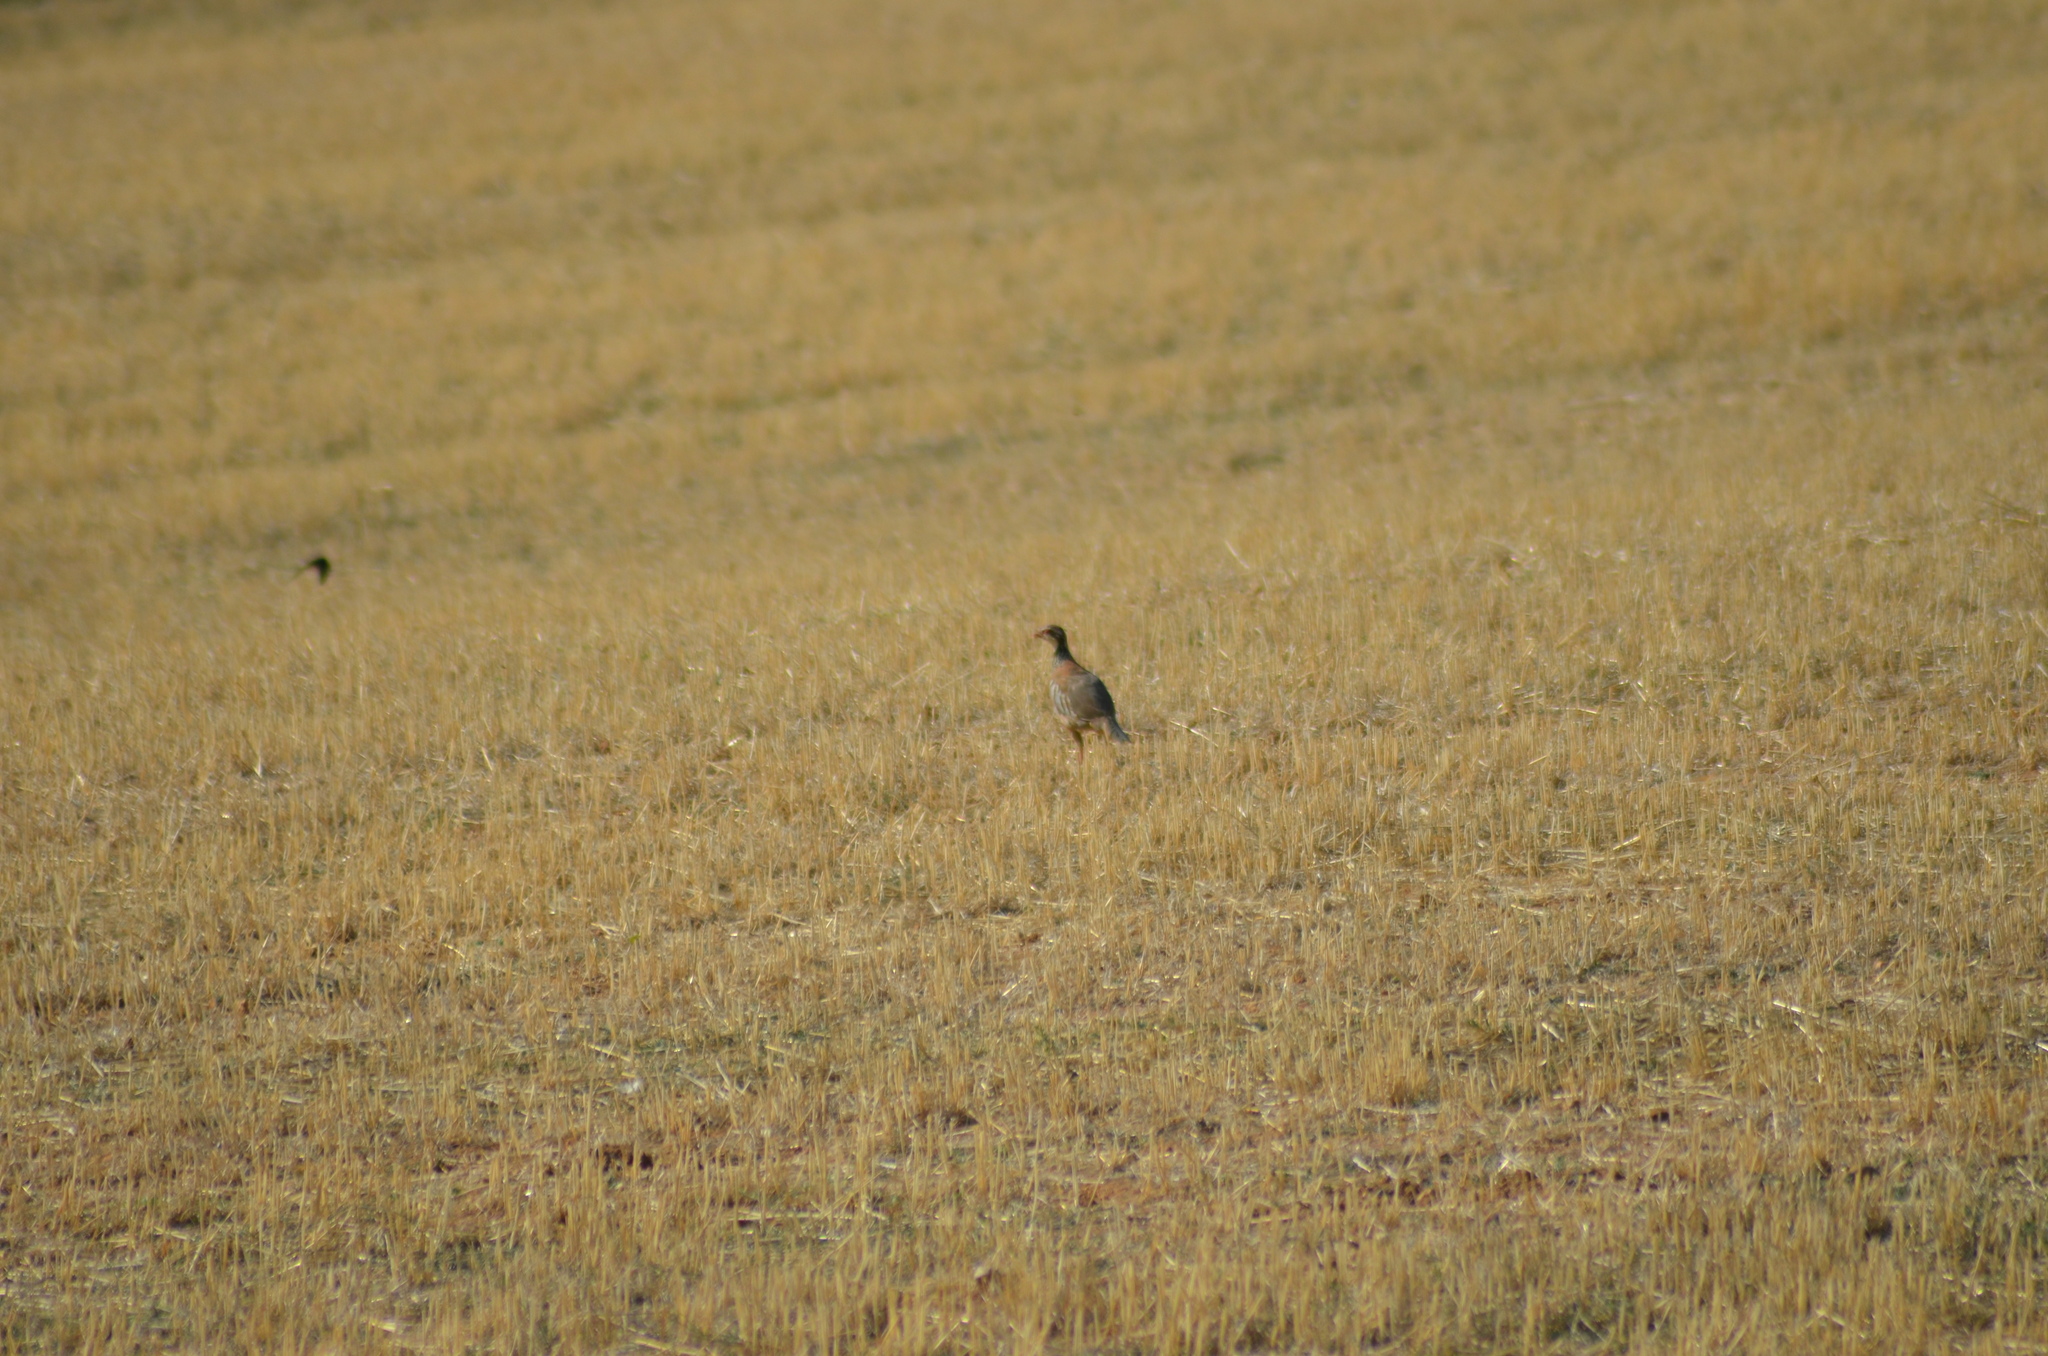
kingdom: Animalia
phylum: Chordata
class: Aves
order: Galliformes
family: Phasianidae
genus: Alectoris
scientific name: Alectoris rufa
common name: Red-legged partridge
